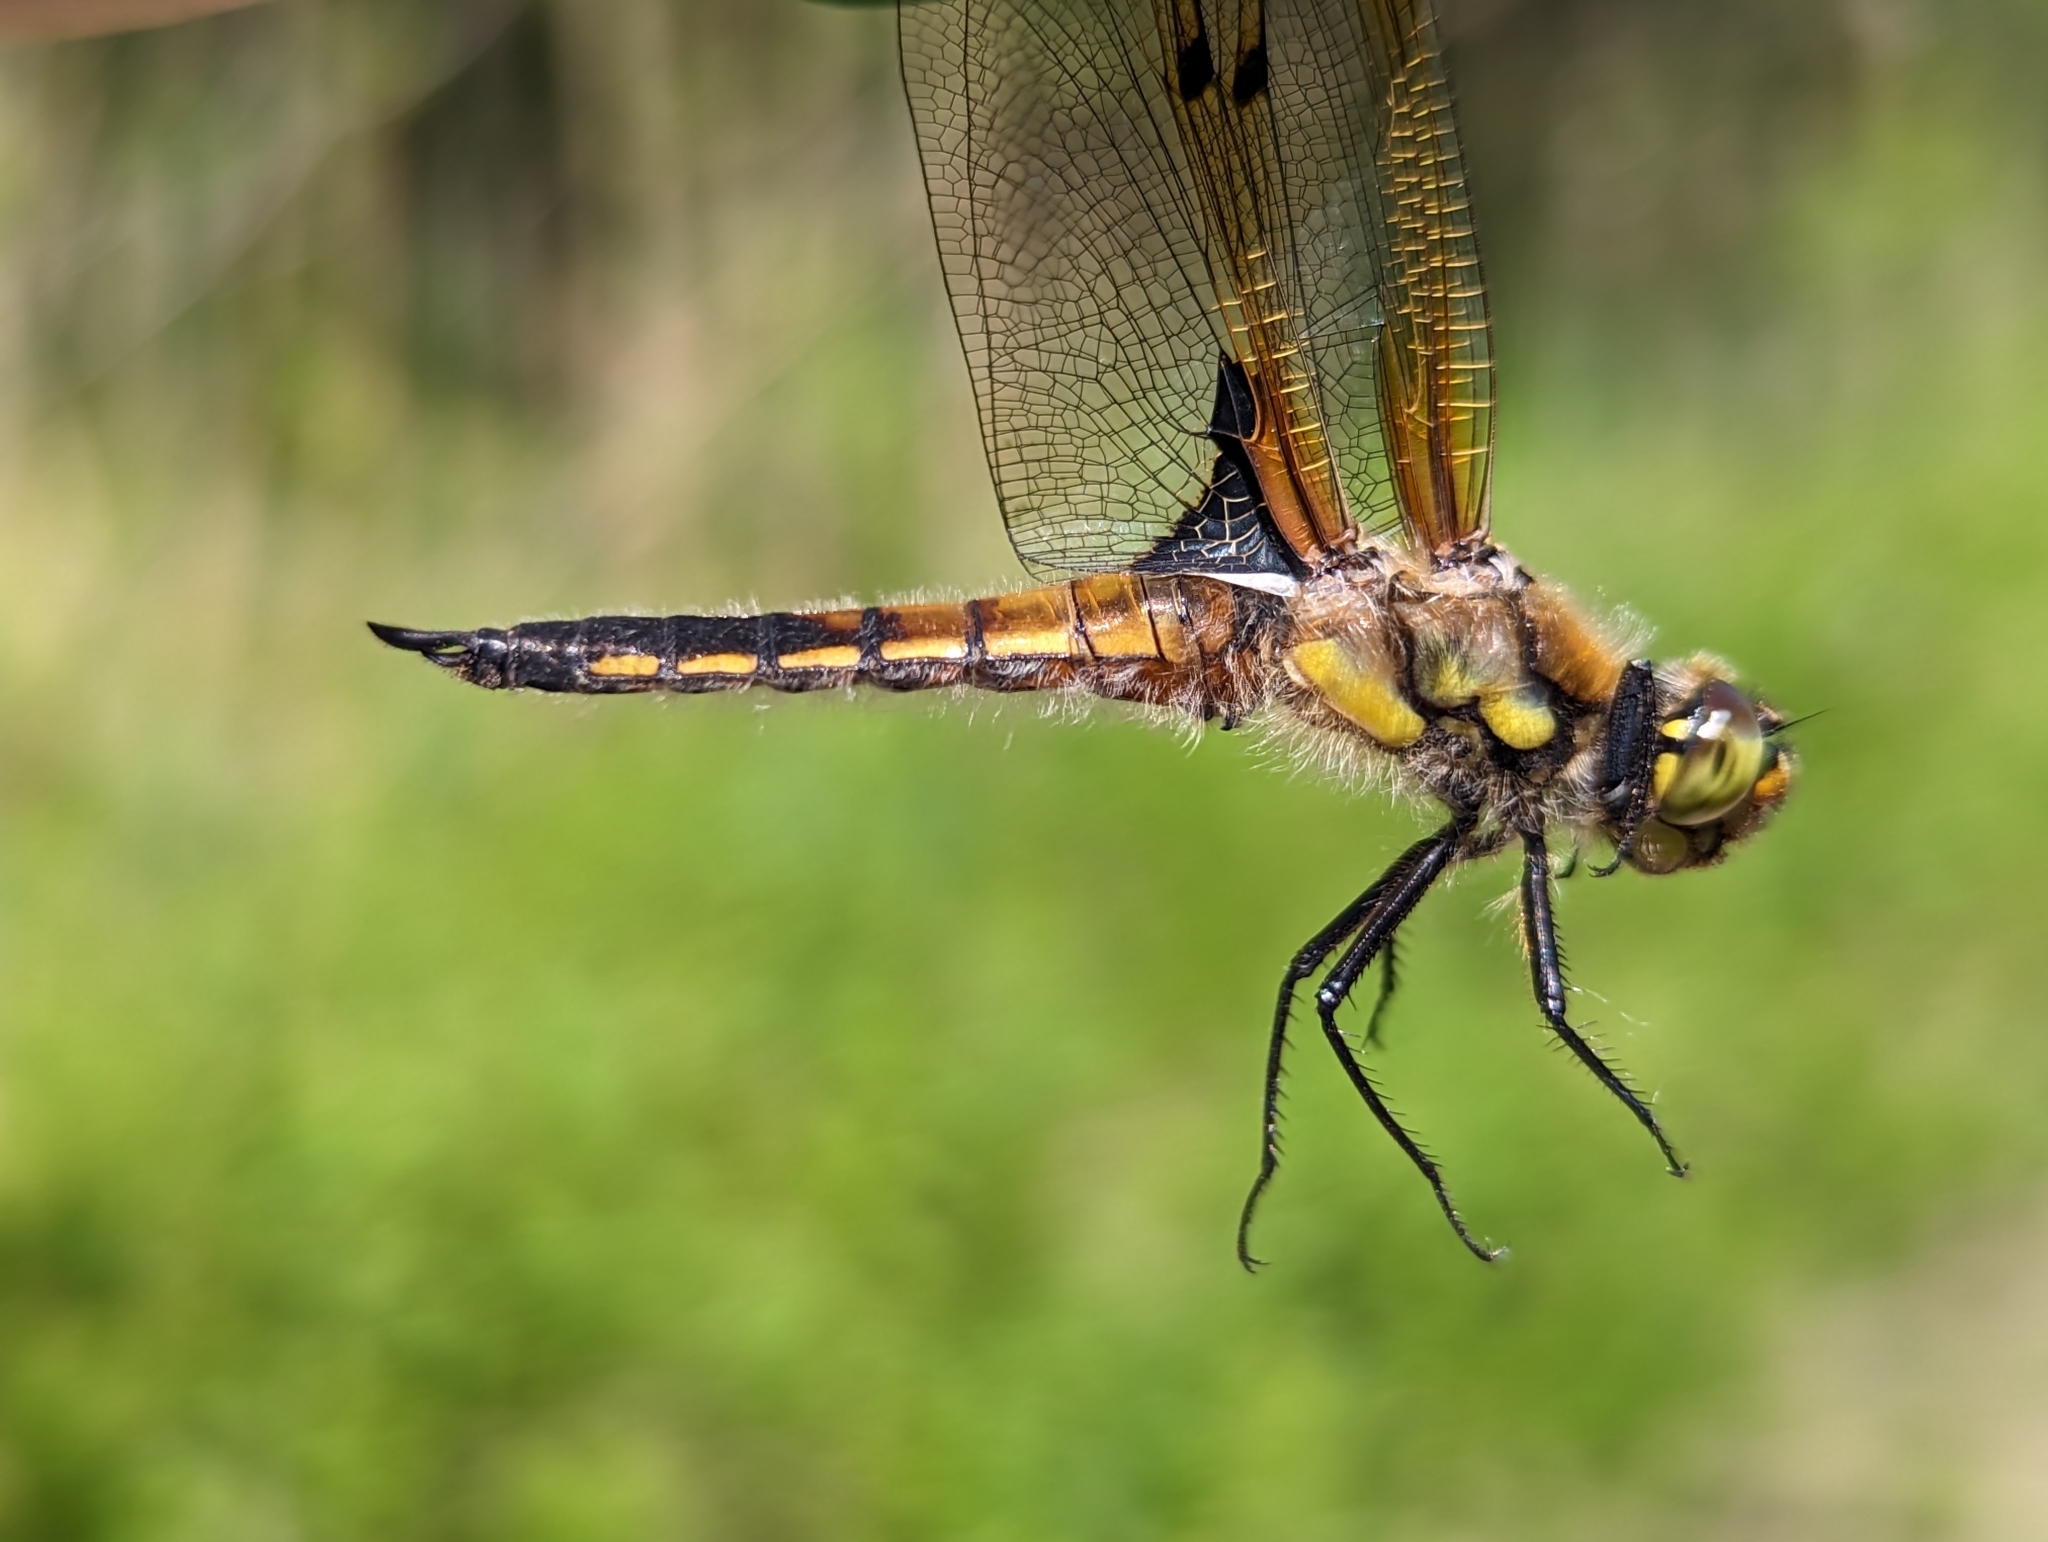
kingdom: Animalia
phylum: Arthropoda
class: Insecta
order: Odonata
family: Libellulidae
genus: Libellula
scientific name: Libellula quadrimaculata
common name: Four-spotted chaser
